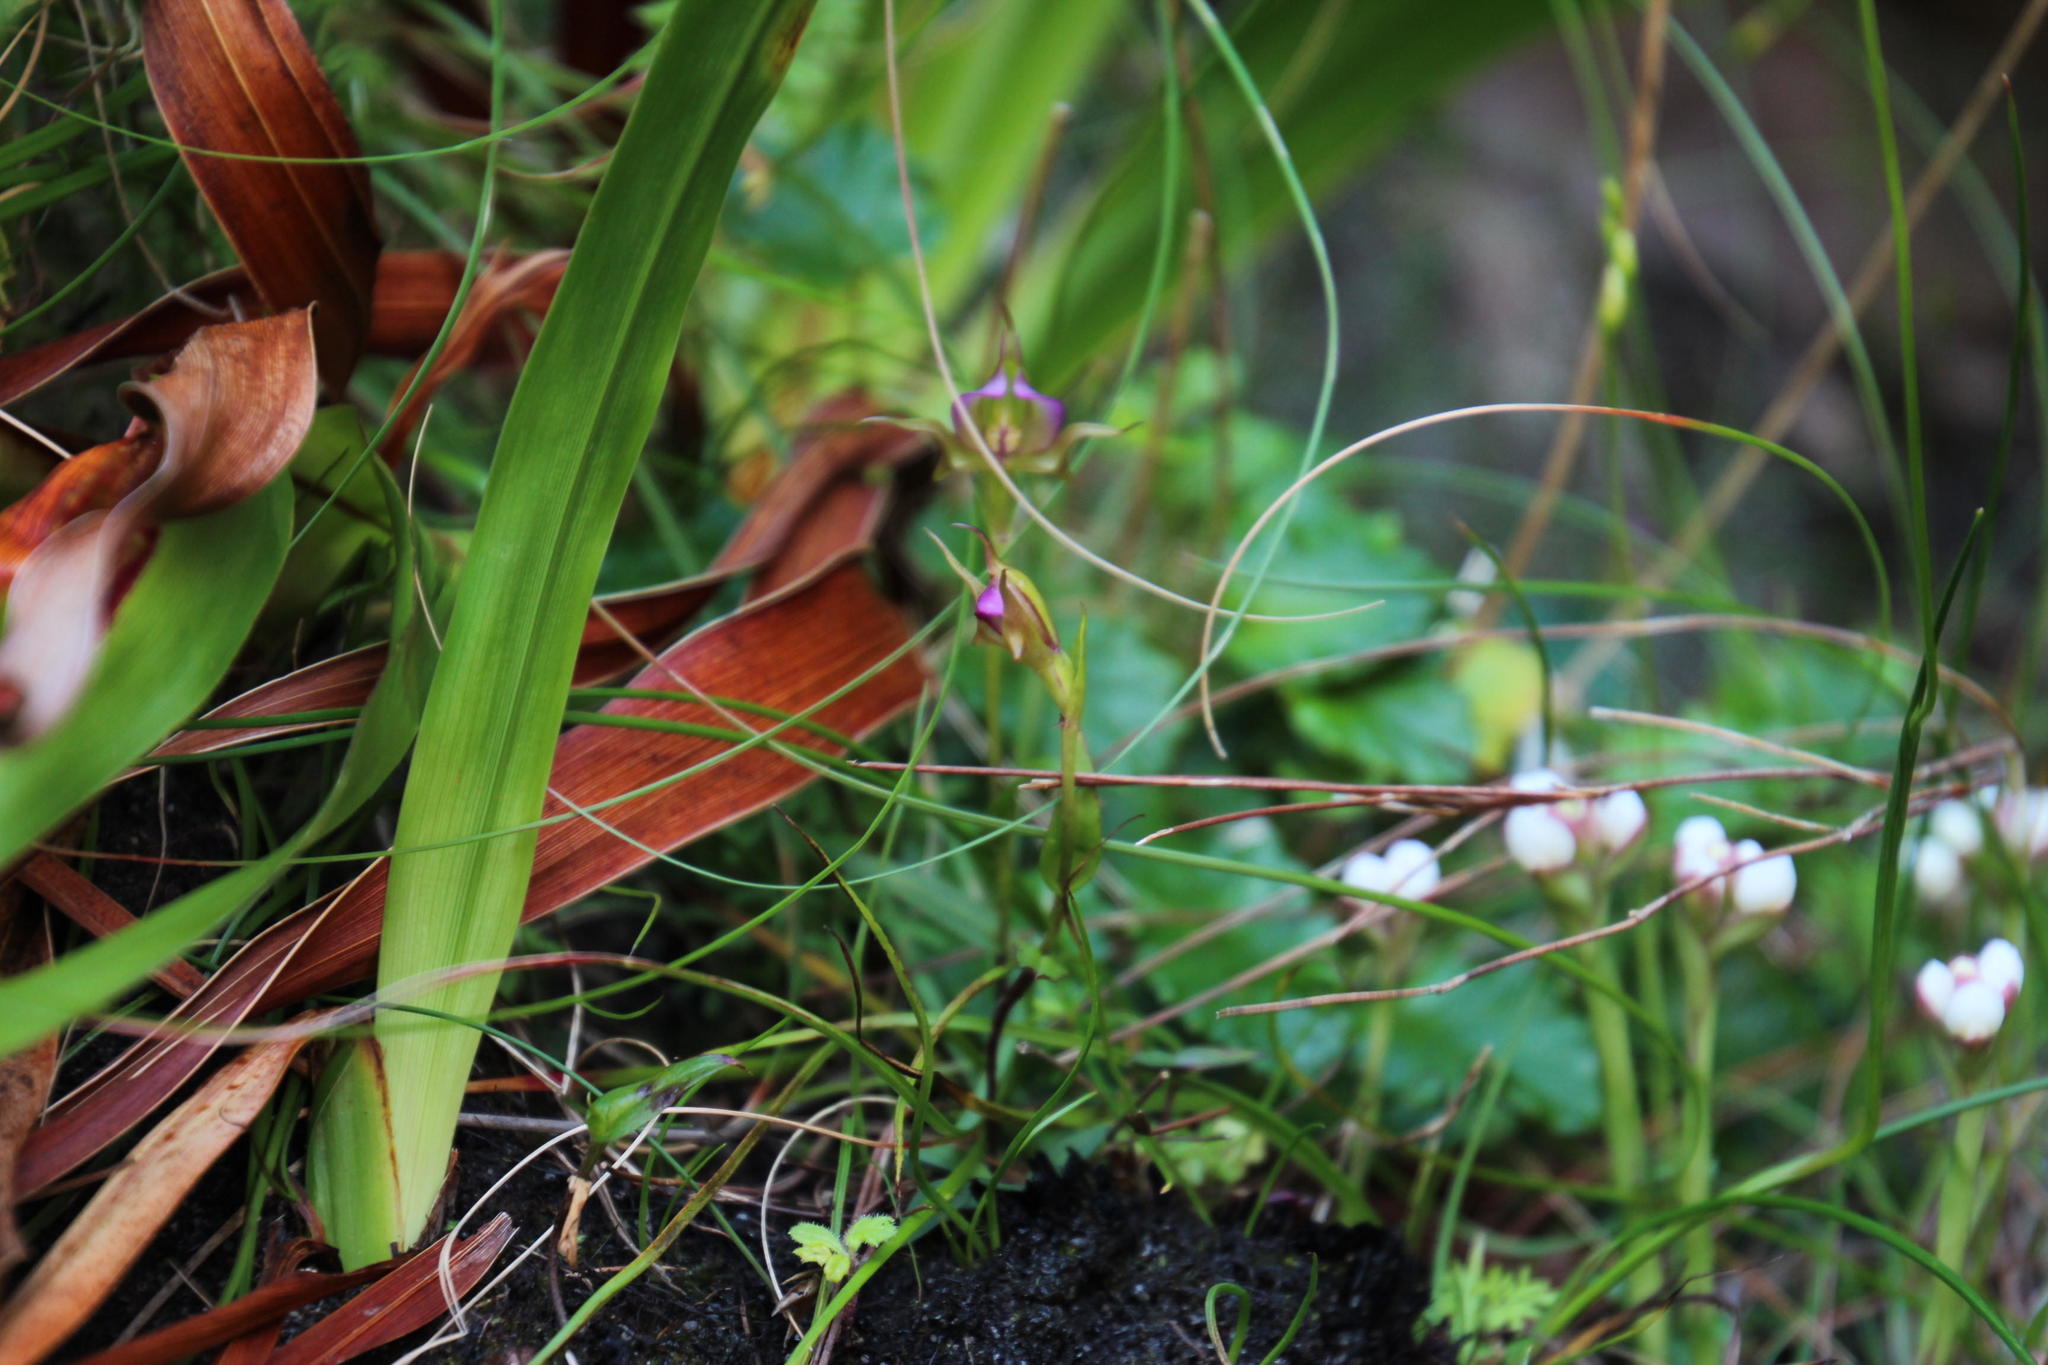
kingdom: Plantae
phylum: Tracheophyta
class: Liliopsida
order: Asparagales
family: Orchidaceae
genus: Disperis
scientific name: Disperis capensis
